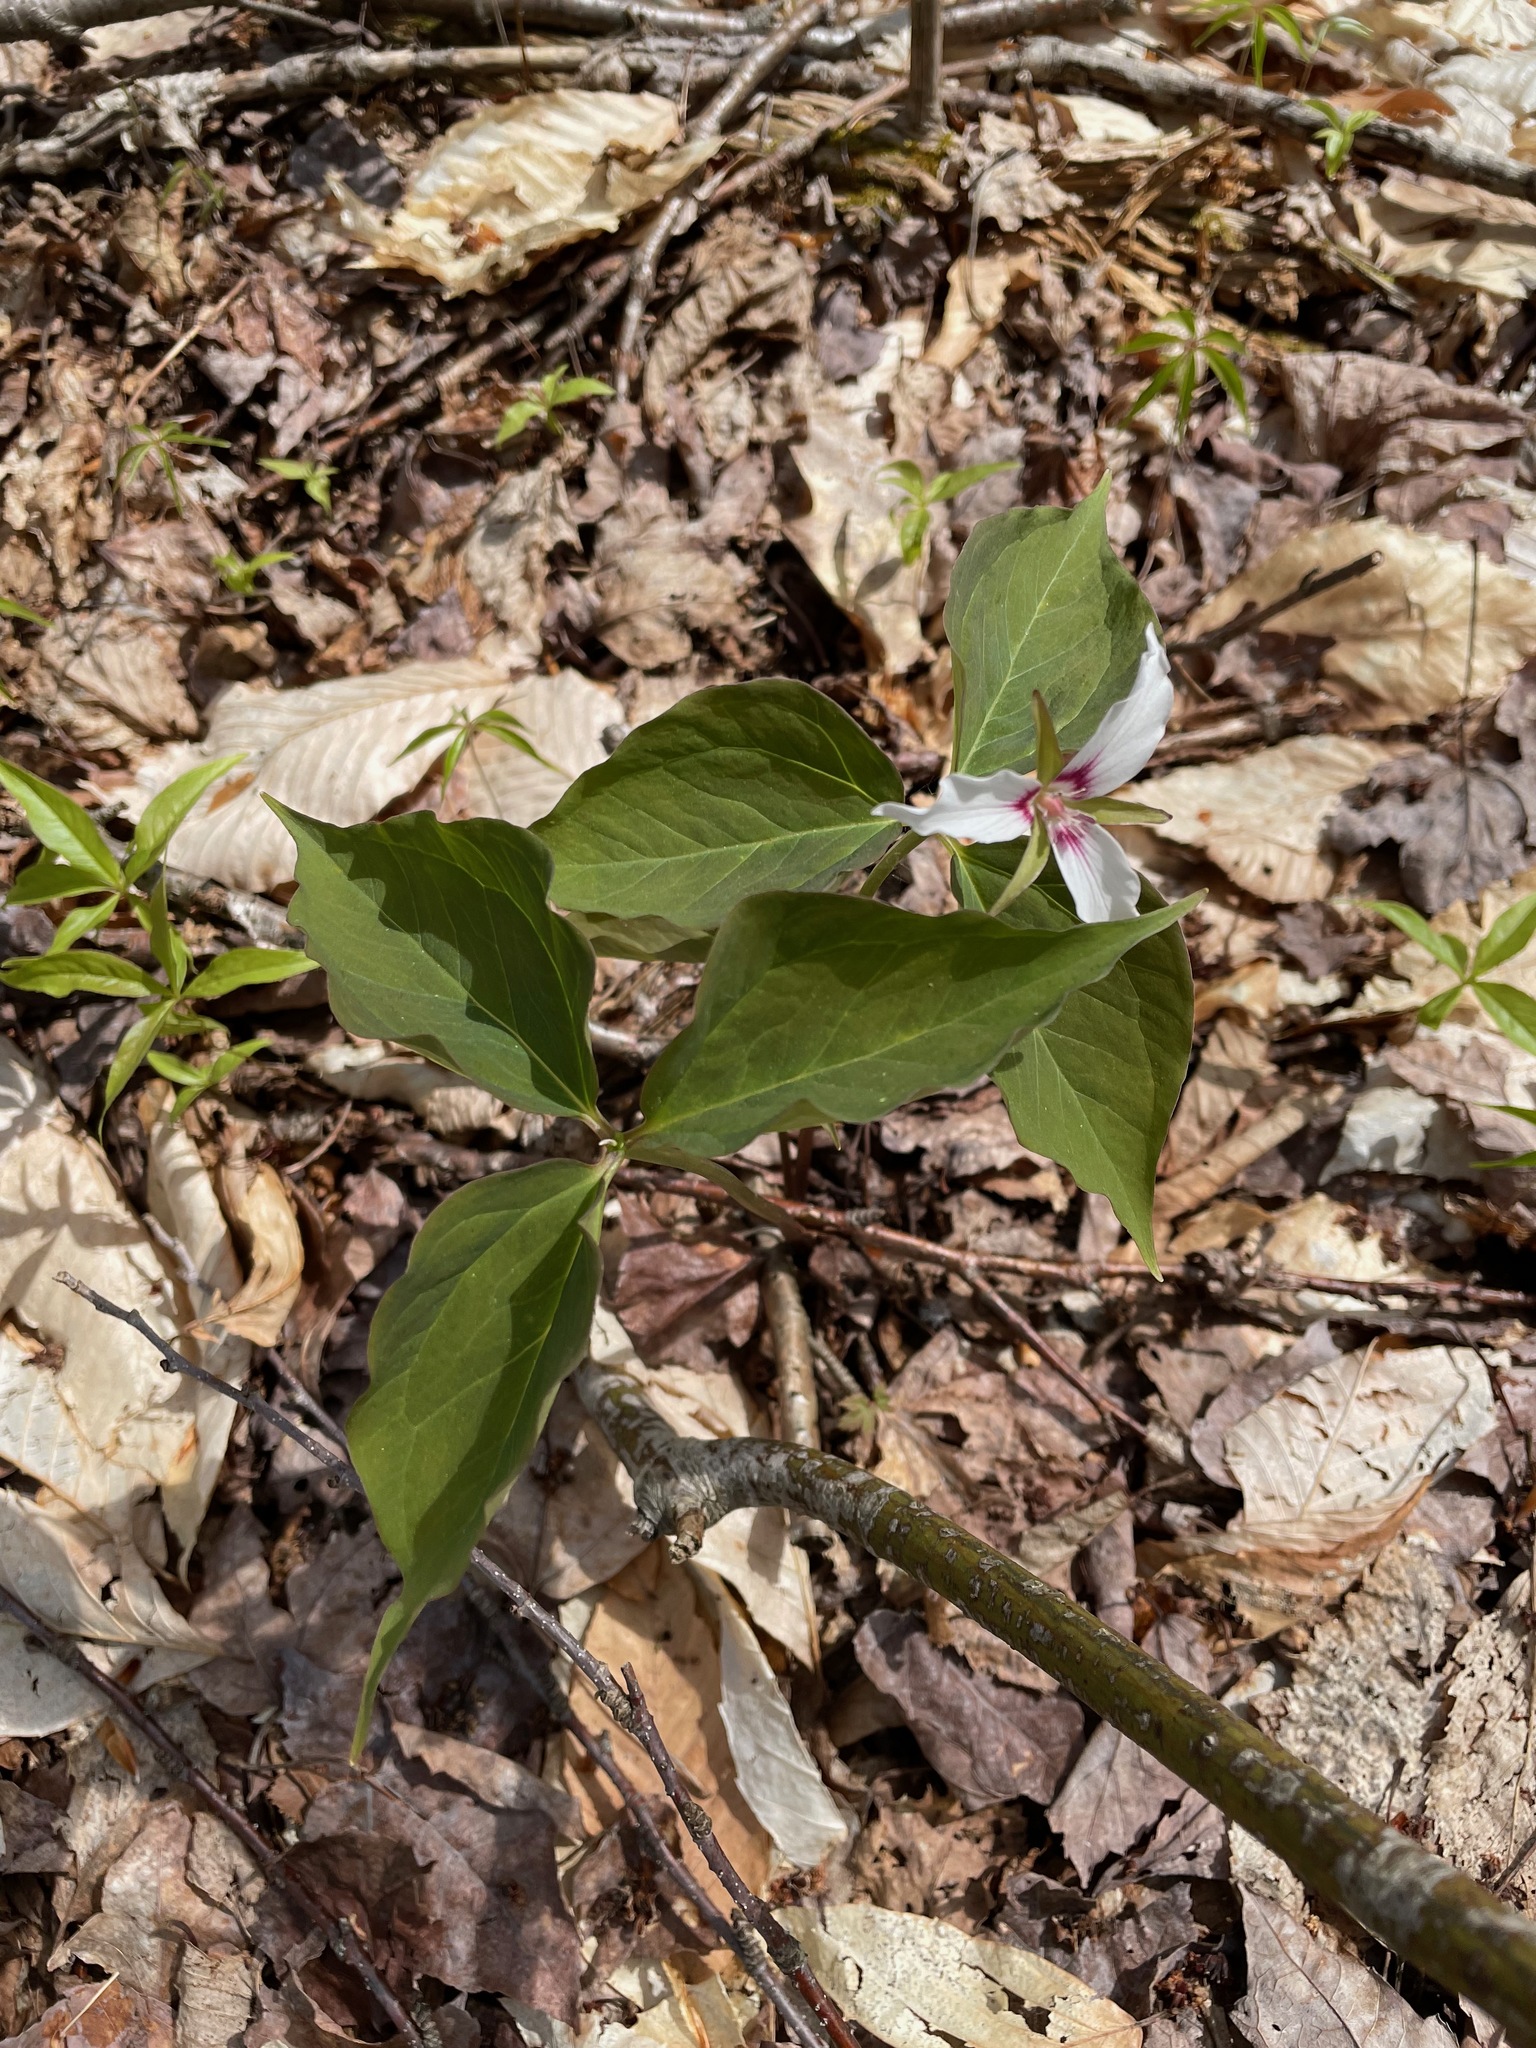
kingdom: Plantae
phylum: Tracheophyta
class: Liliopsida
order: Liliales
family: Melanthiaceae
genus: Trillium
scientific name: Trillium undulatum
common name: Paint trillium
